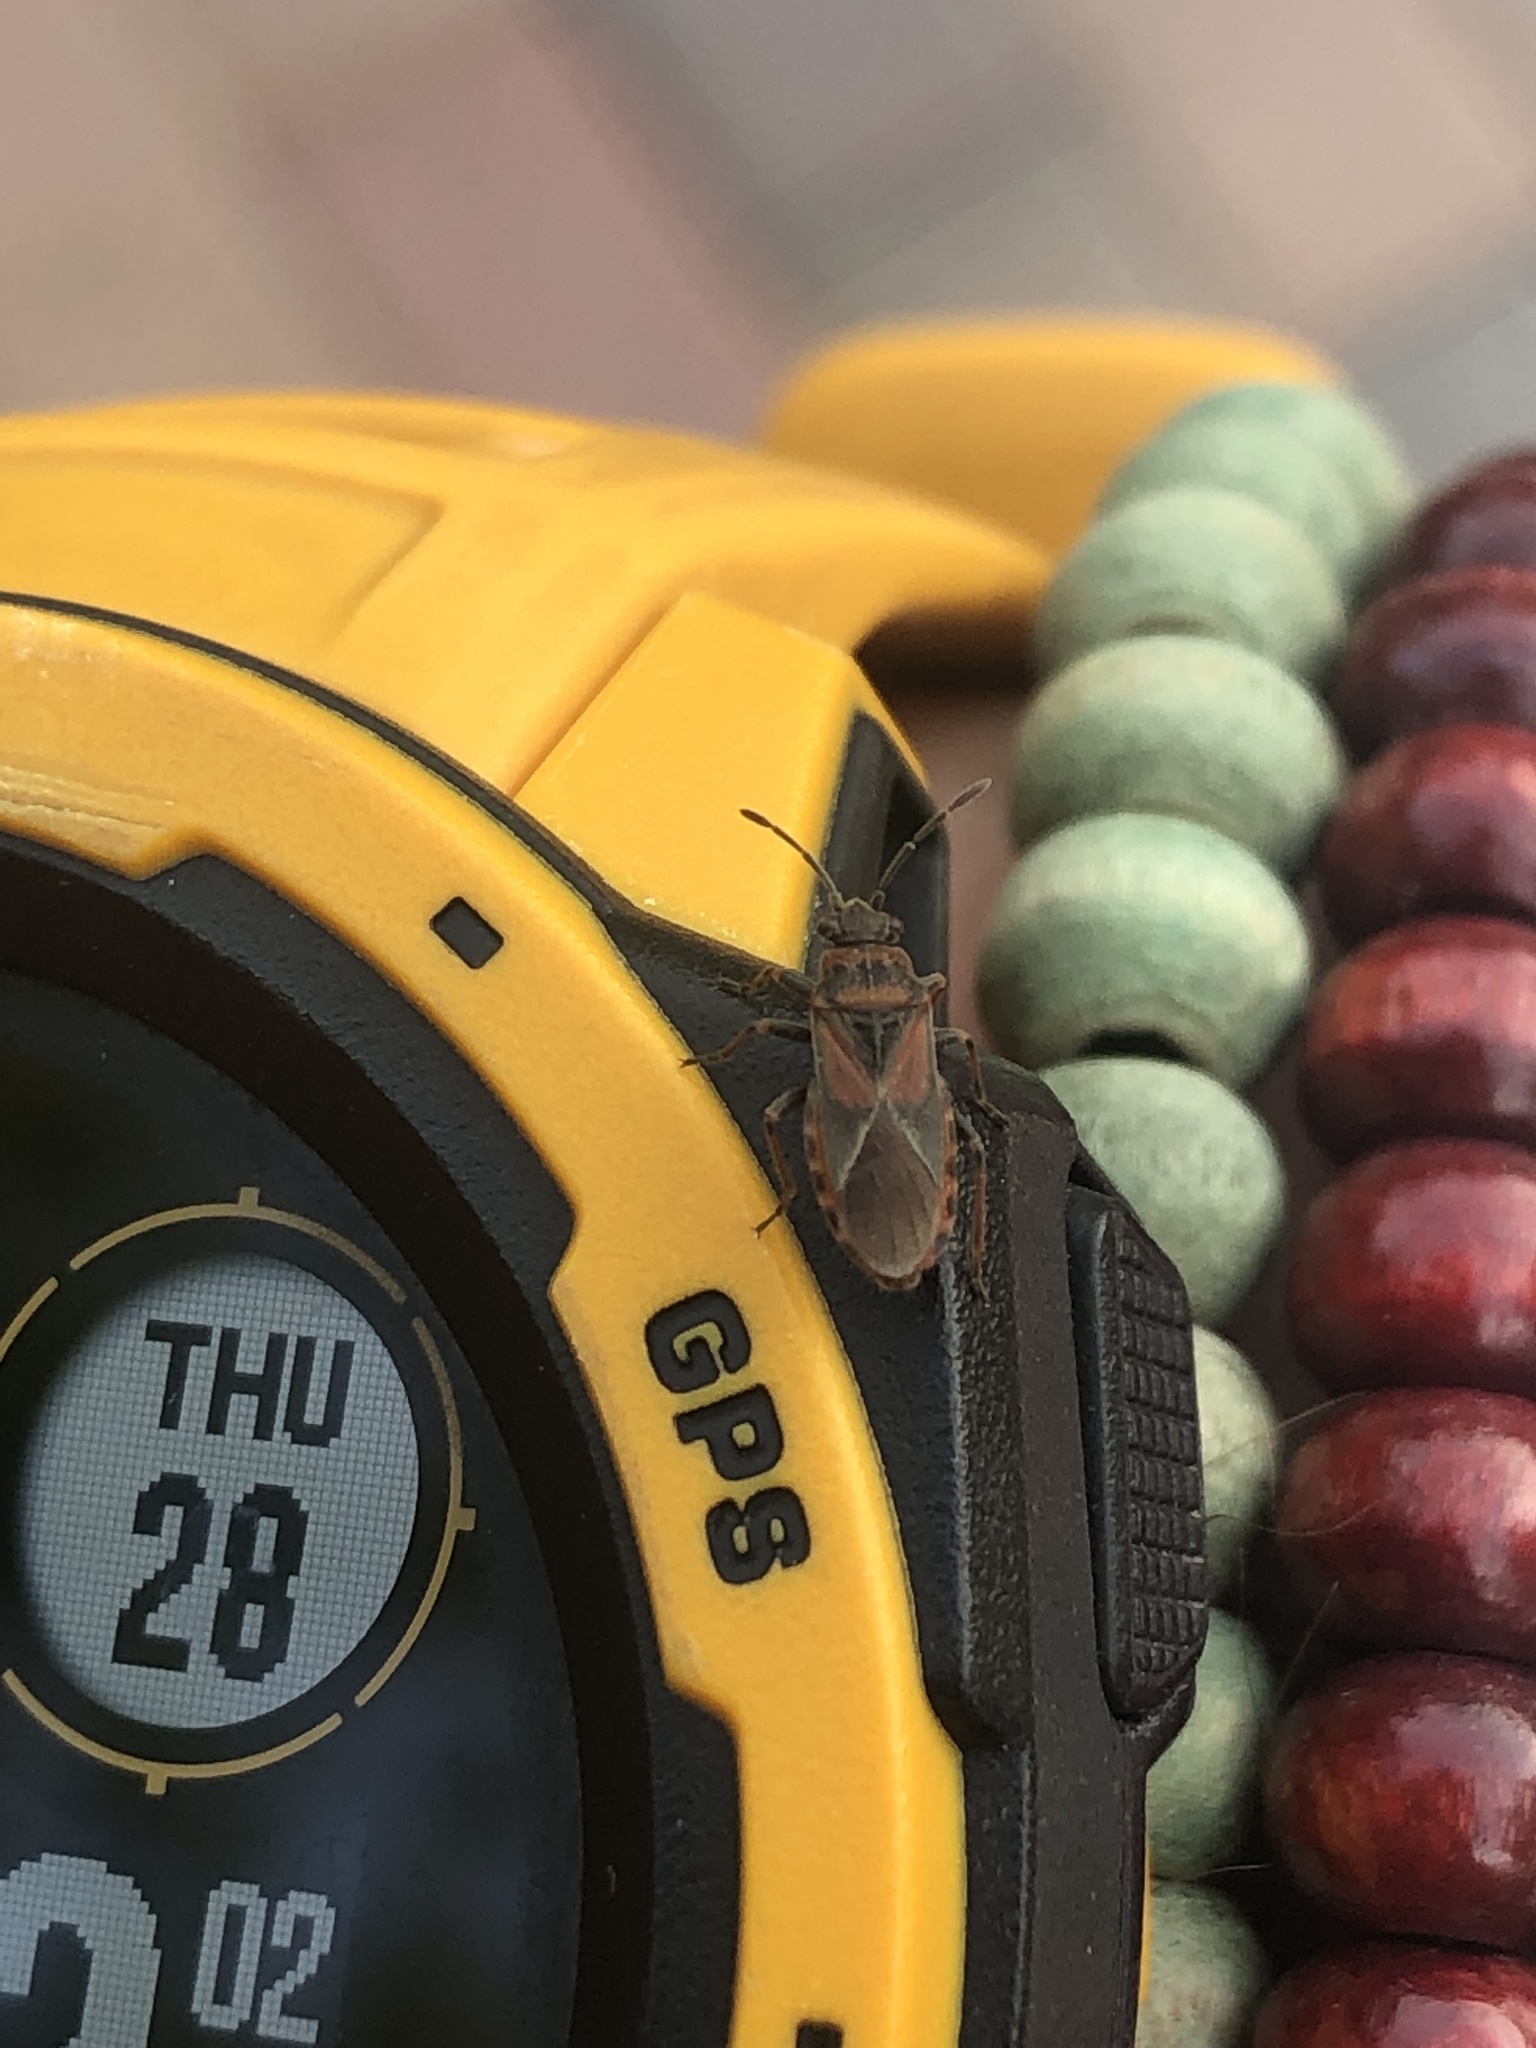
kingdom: Animalia
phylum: Arthropoda
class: Insecta
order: Hemiptera
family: Lygaeidae
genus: Arocatus
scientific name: Arocatus melanocephalus
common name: Lygaeid bug
